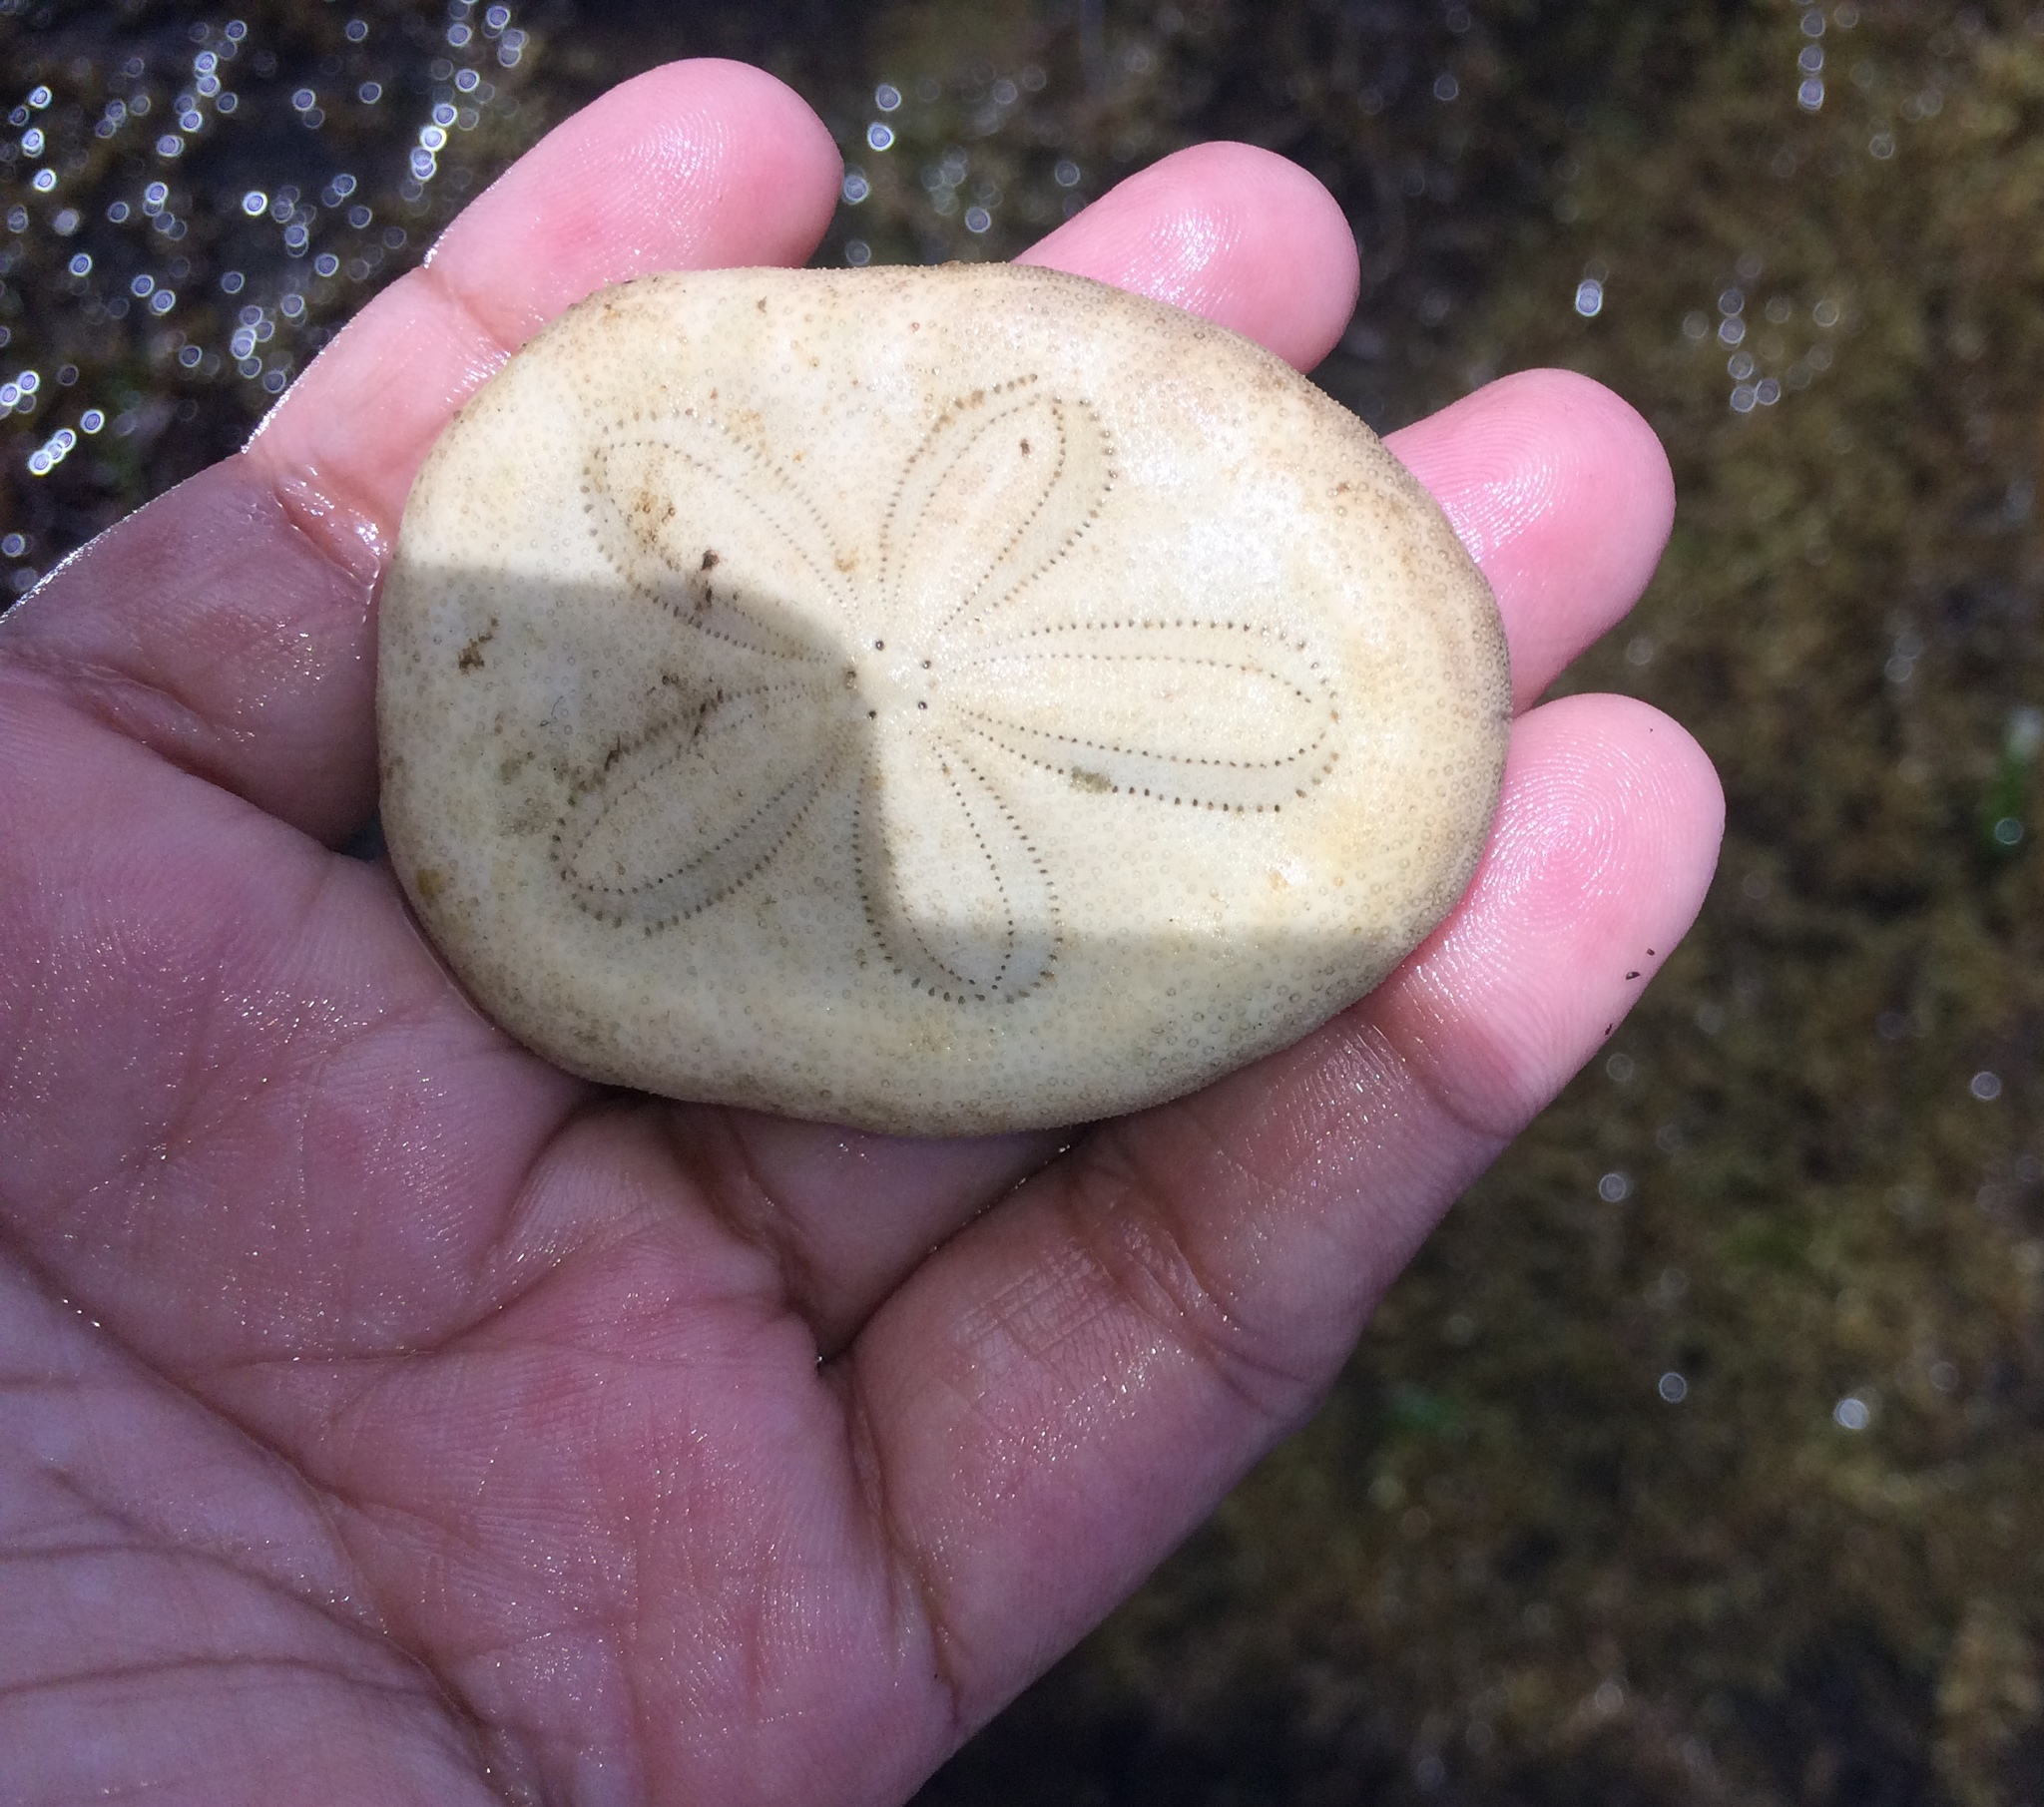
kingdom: Animalia
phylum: Echinodermata
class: Echinoidea
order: Clypeasteroida
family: Clypeasteridae
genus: Clypeaster
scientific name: Clypeaster reticulatus
